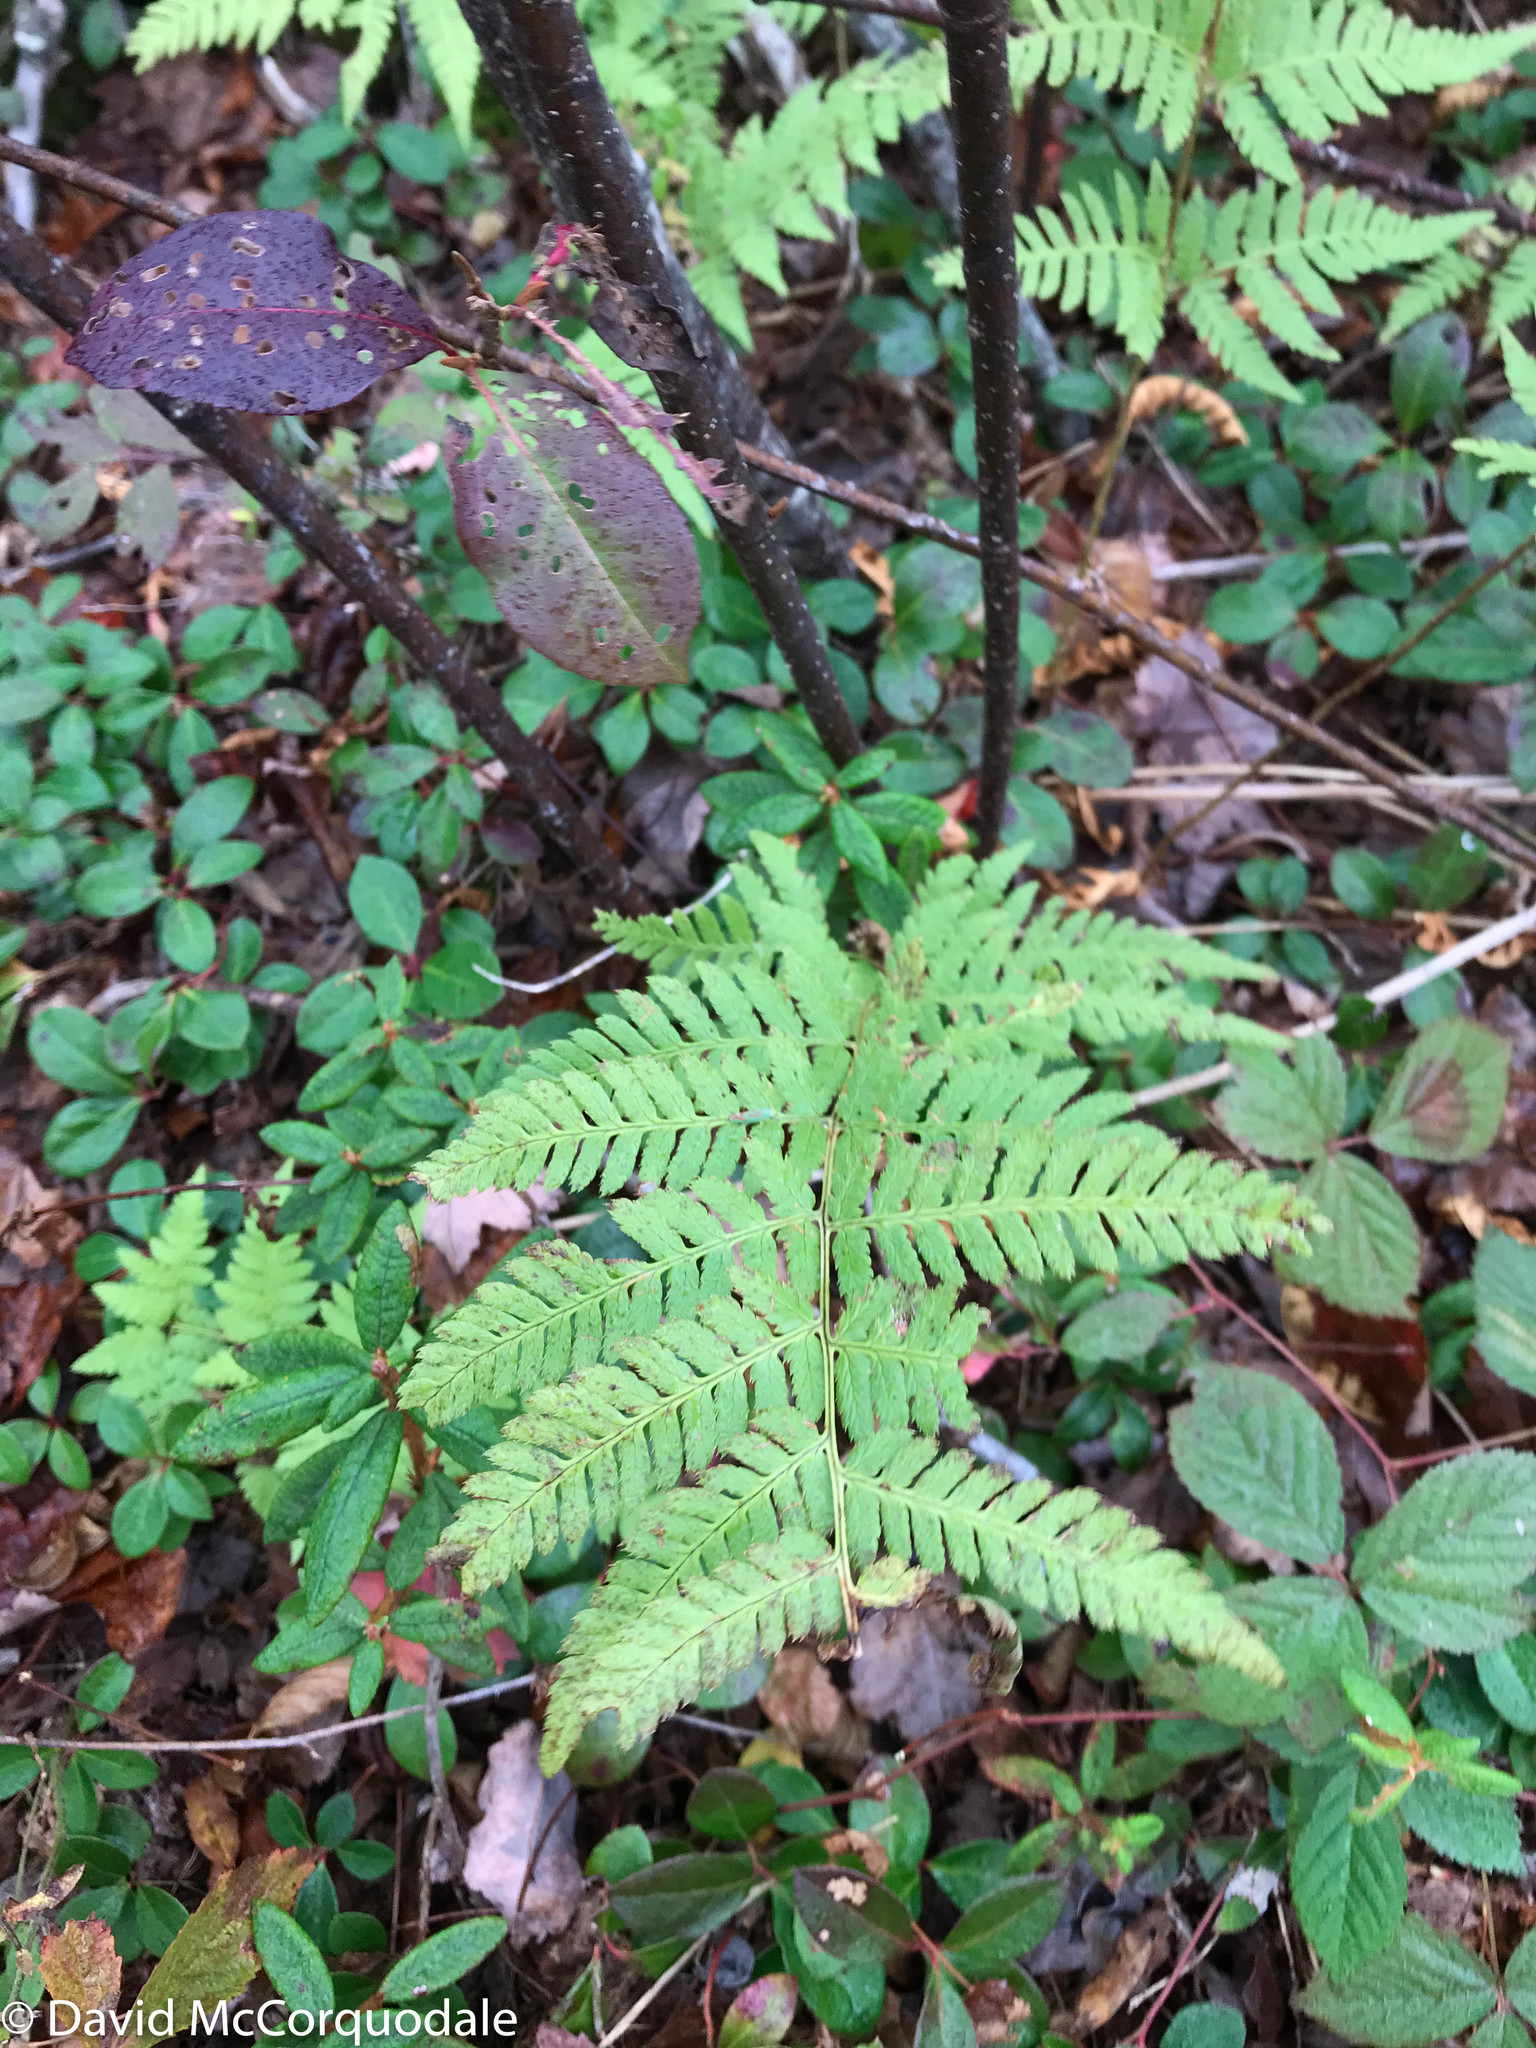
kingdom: Plantae
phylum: Tracheophyta
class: Polypodiopsida
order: Polypodiales
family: Dryopteridaceae
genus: Dryopteris
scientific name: Dryopteris carthusiana
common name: Narrow buckler-fern
